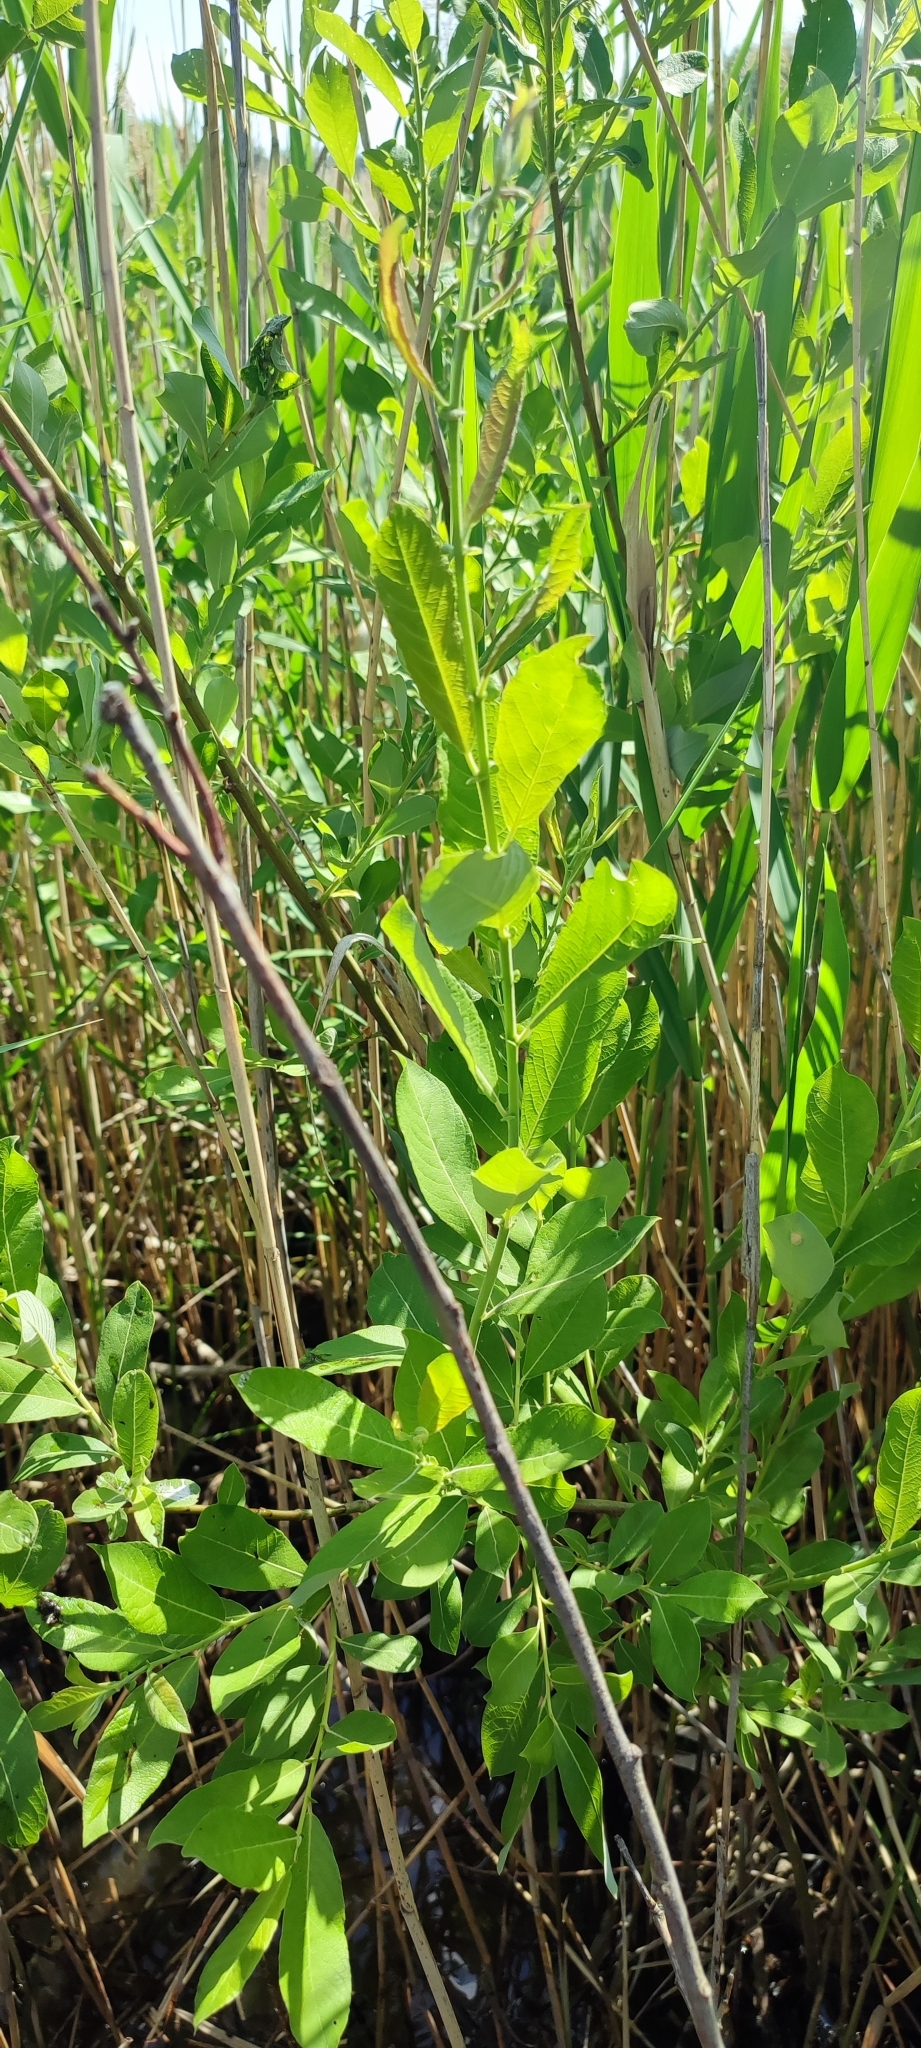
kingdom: Plantae
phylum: Tracheophyta
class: Magnoliopsida
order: Malpighiales
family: Salicaceae
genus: Salix
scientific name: Salix cinerea
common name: Common sallow
